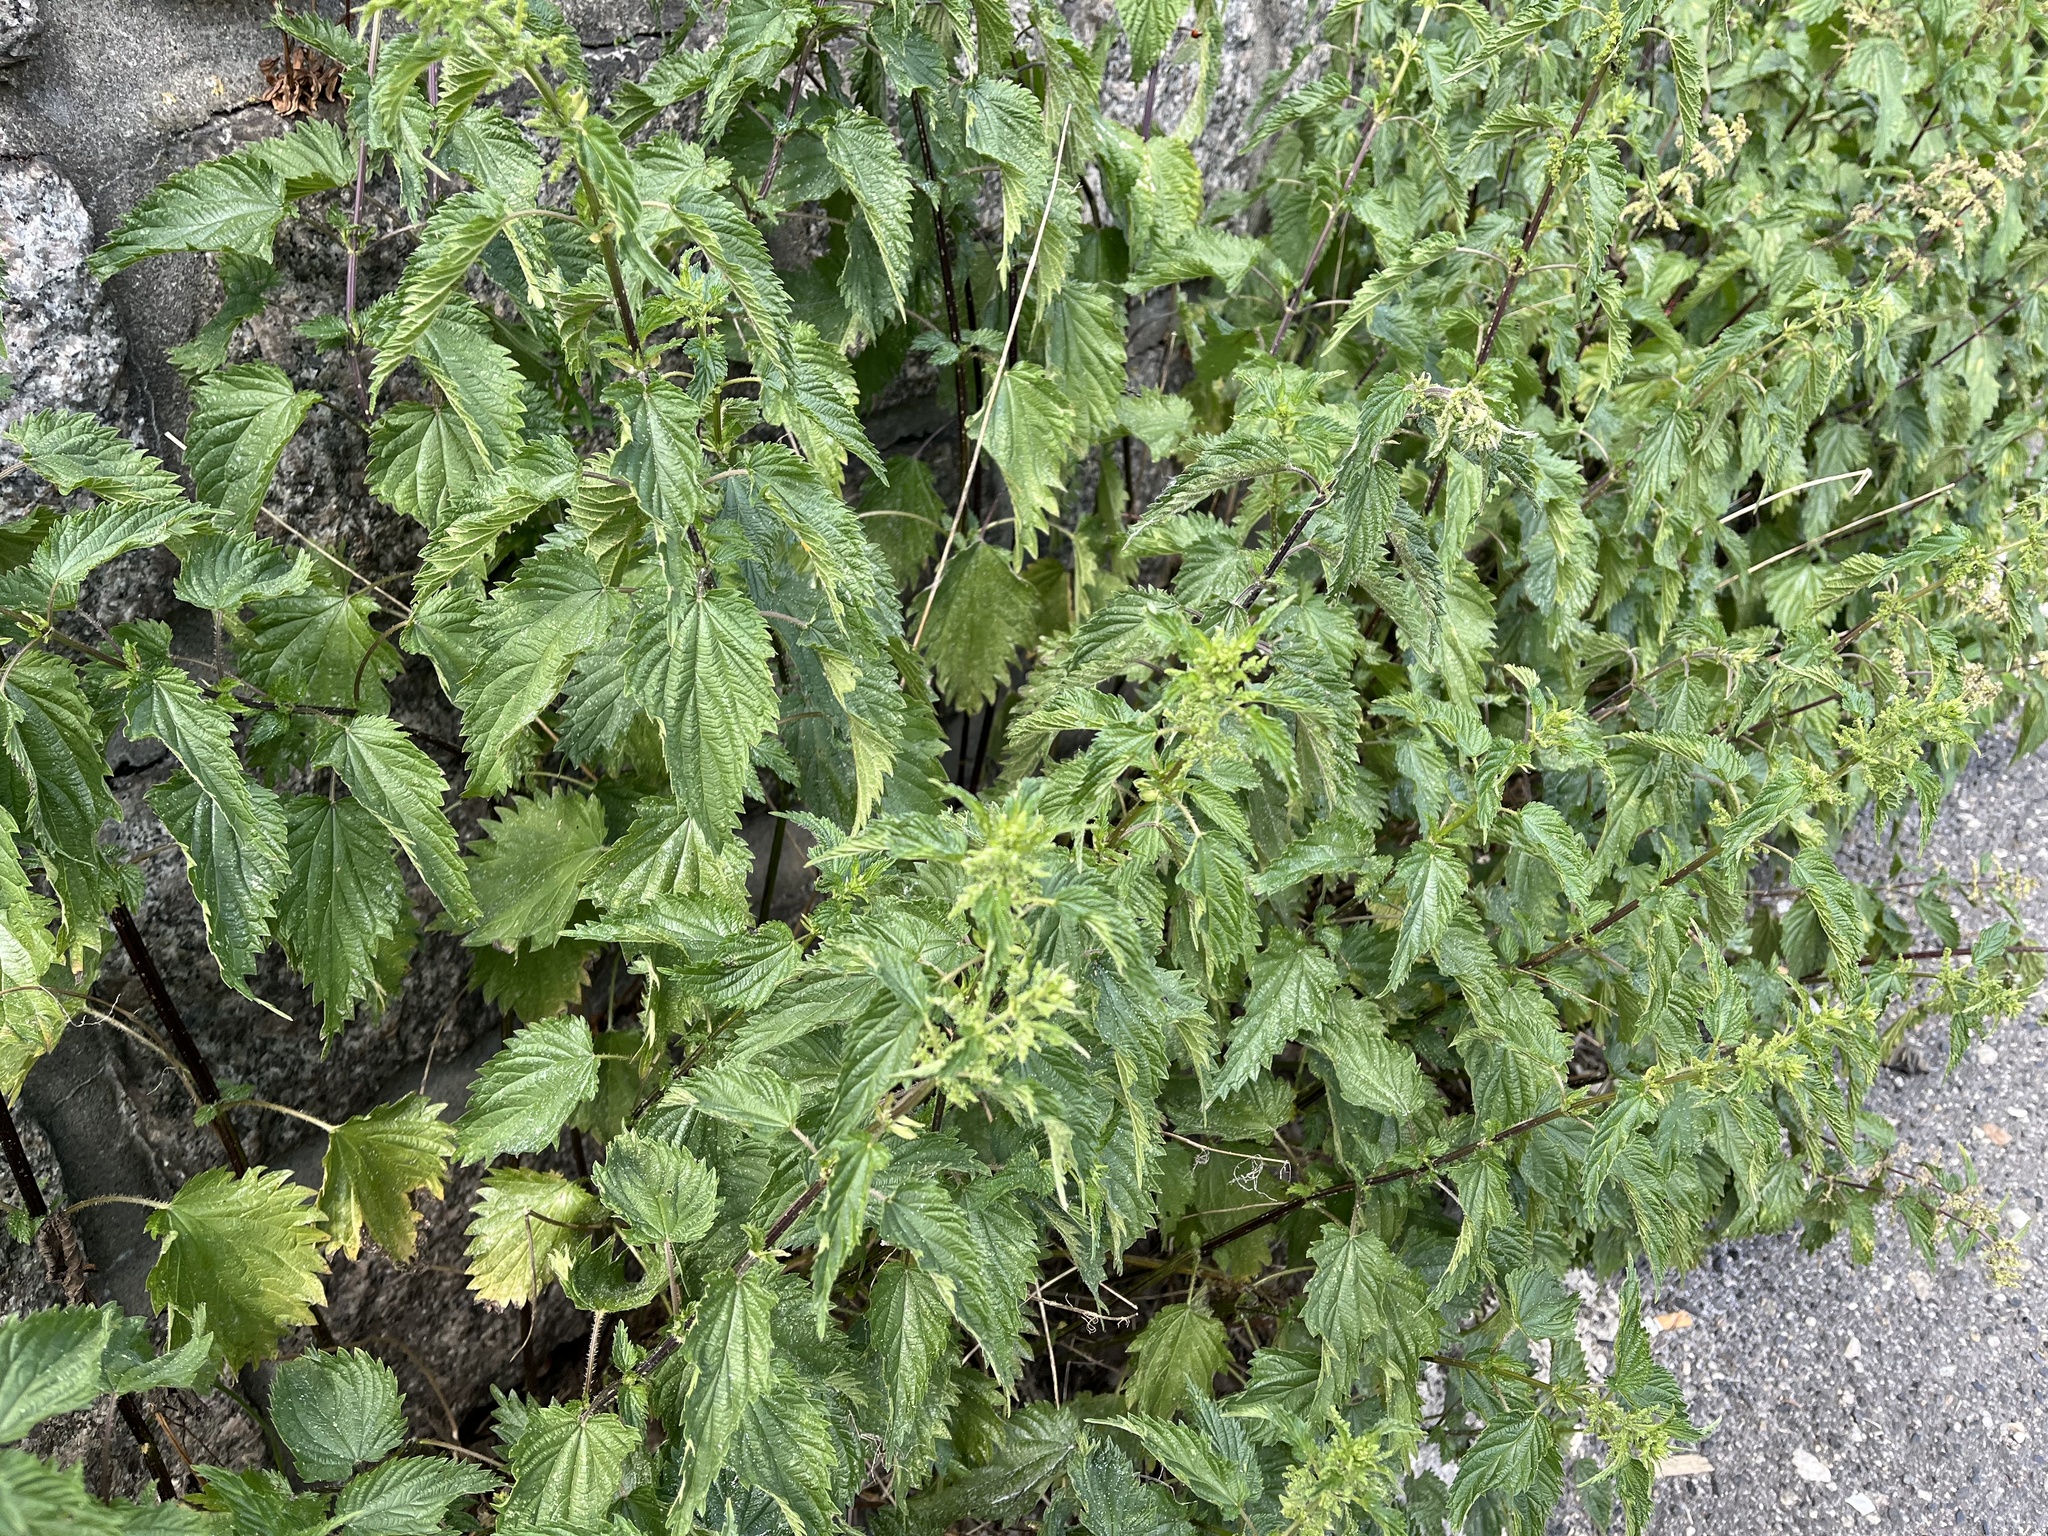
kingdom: Plantae
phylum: Tracheophyta
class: Magnoliopsida
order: Rosales
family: Urticaceae
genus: Urtica
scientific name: Urtica dioica
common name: Common nettle
